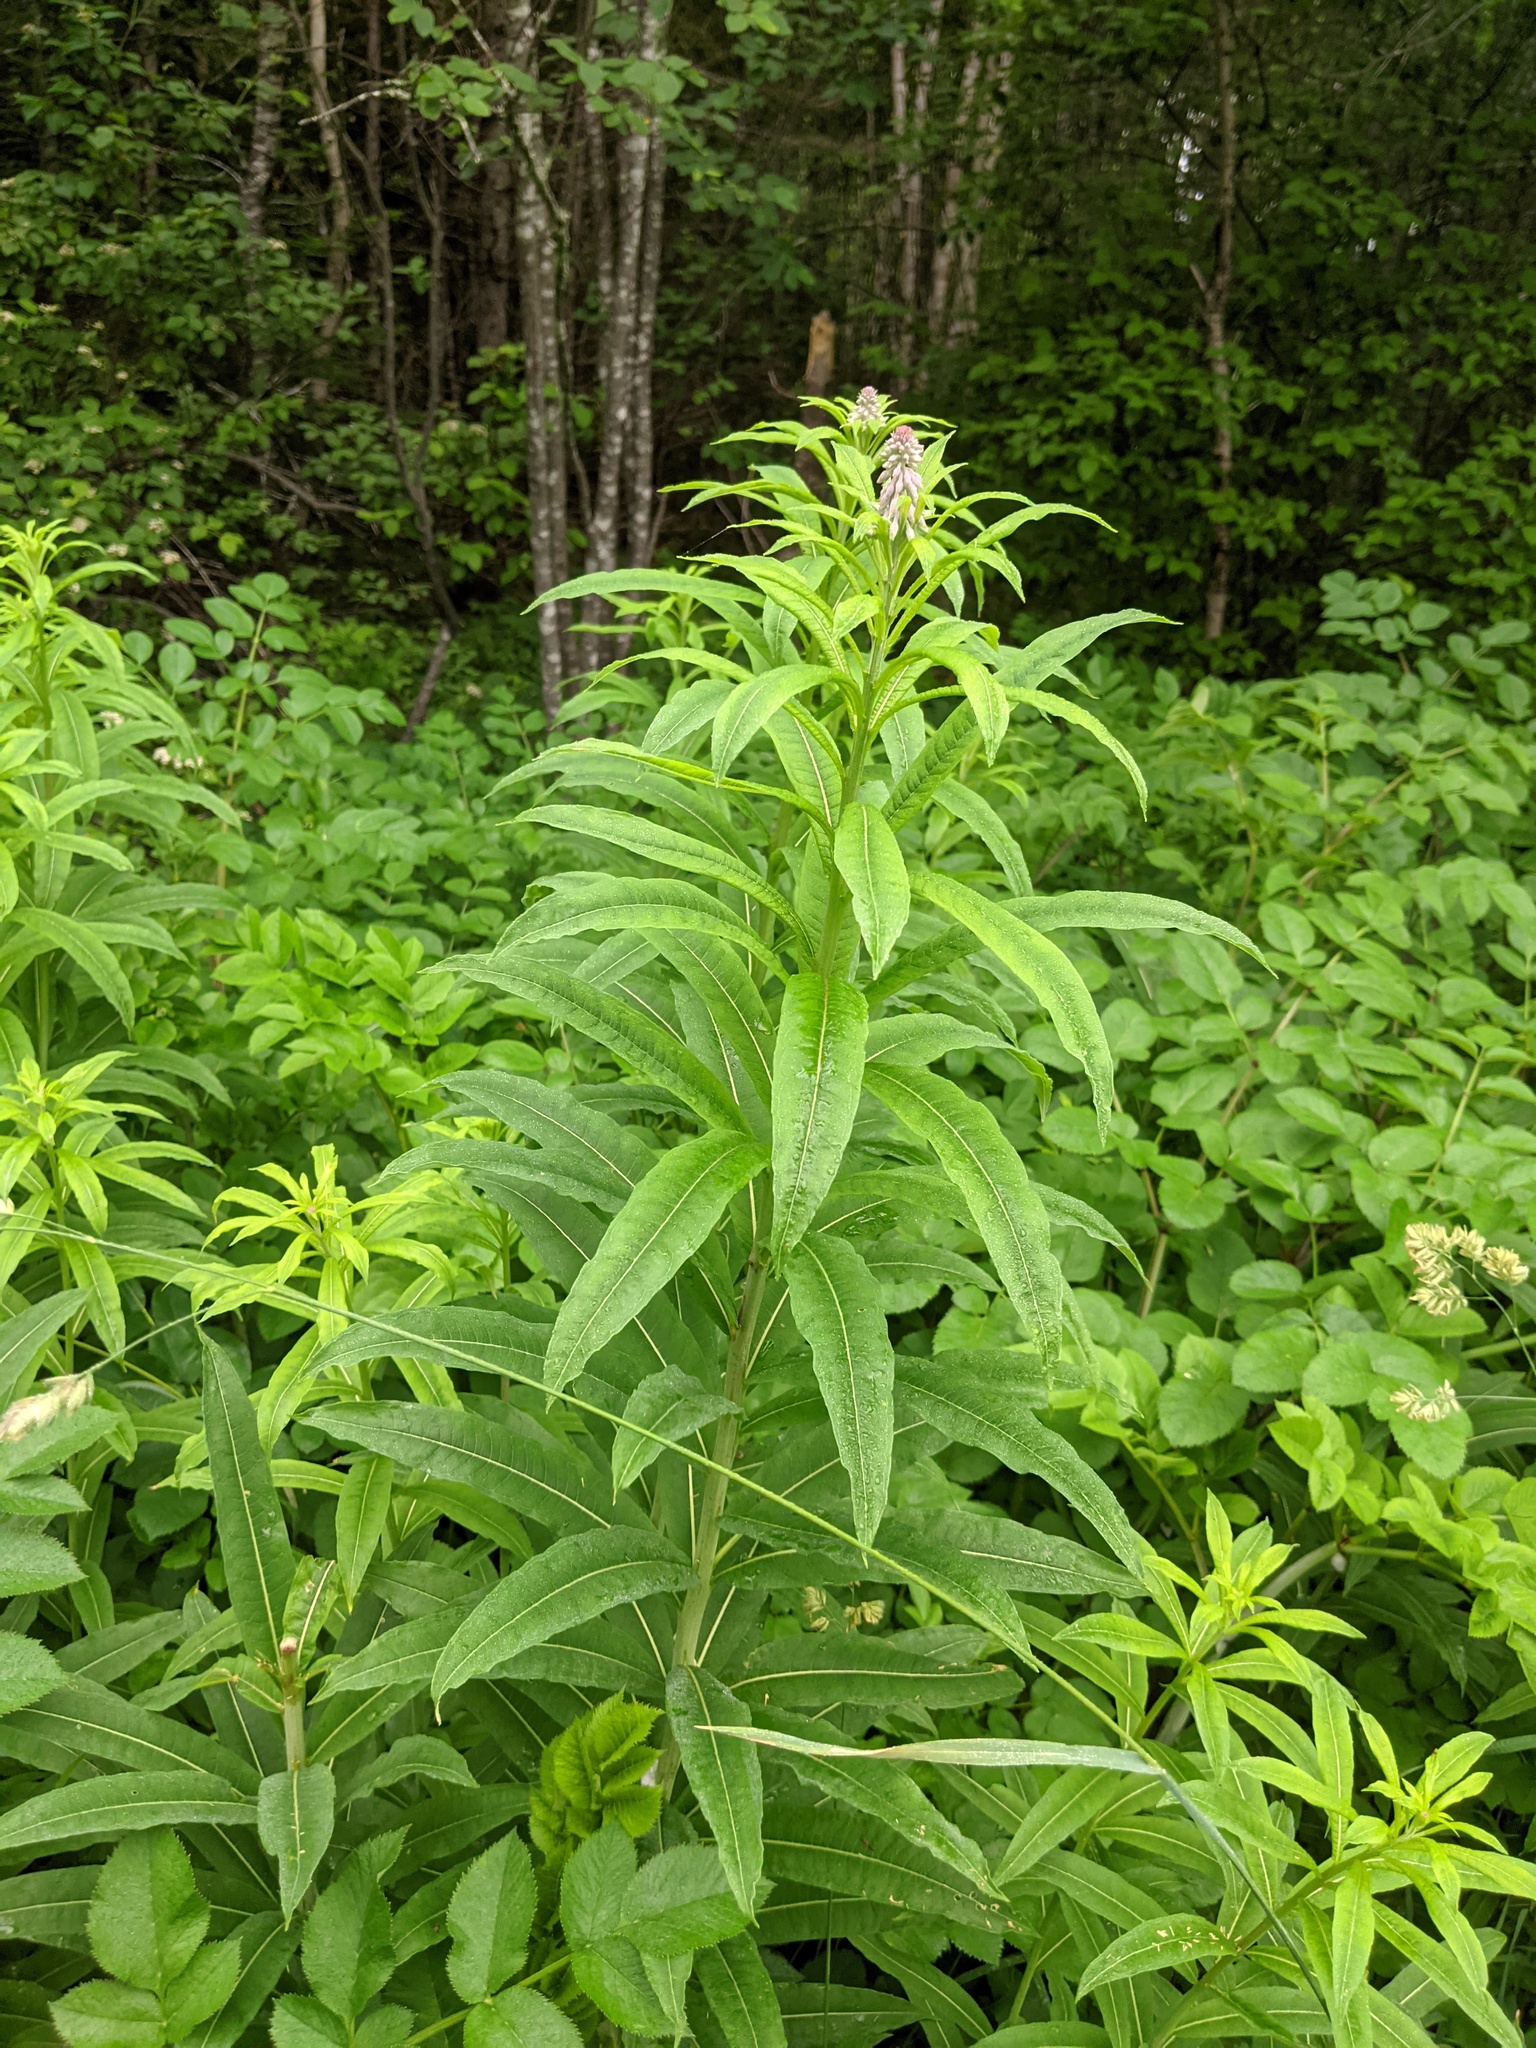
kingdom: Plantae
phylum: Tracheophyta
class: Magnoliopsida
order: Myrtales
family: Onagraceae
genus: Chamaenerion
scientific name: Chamaenerion angustifolium
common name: Fireweed
